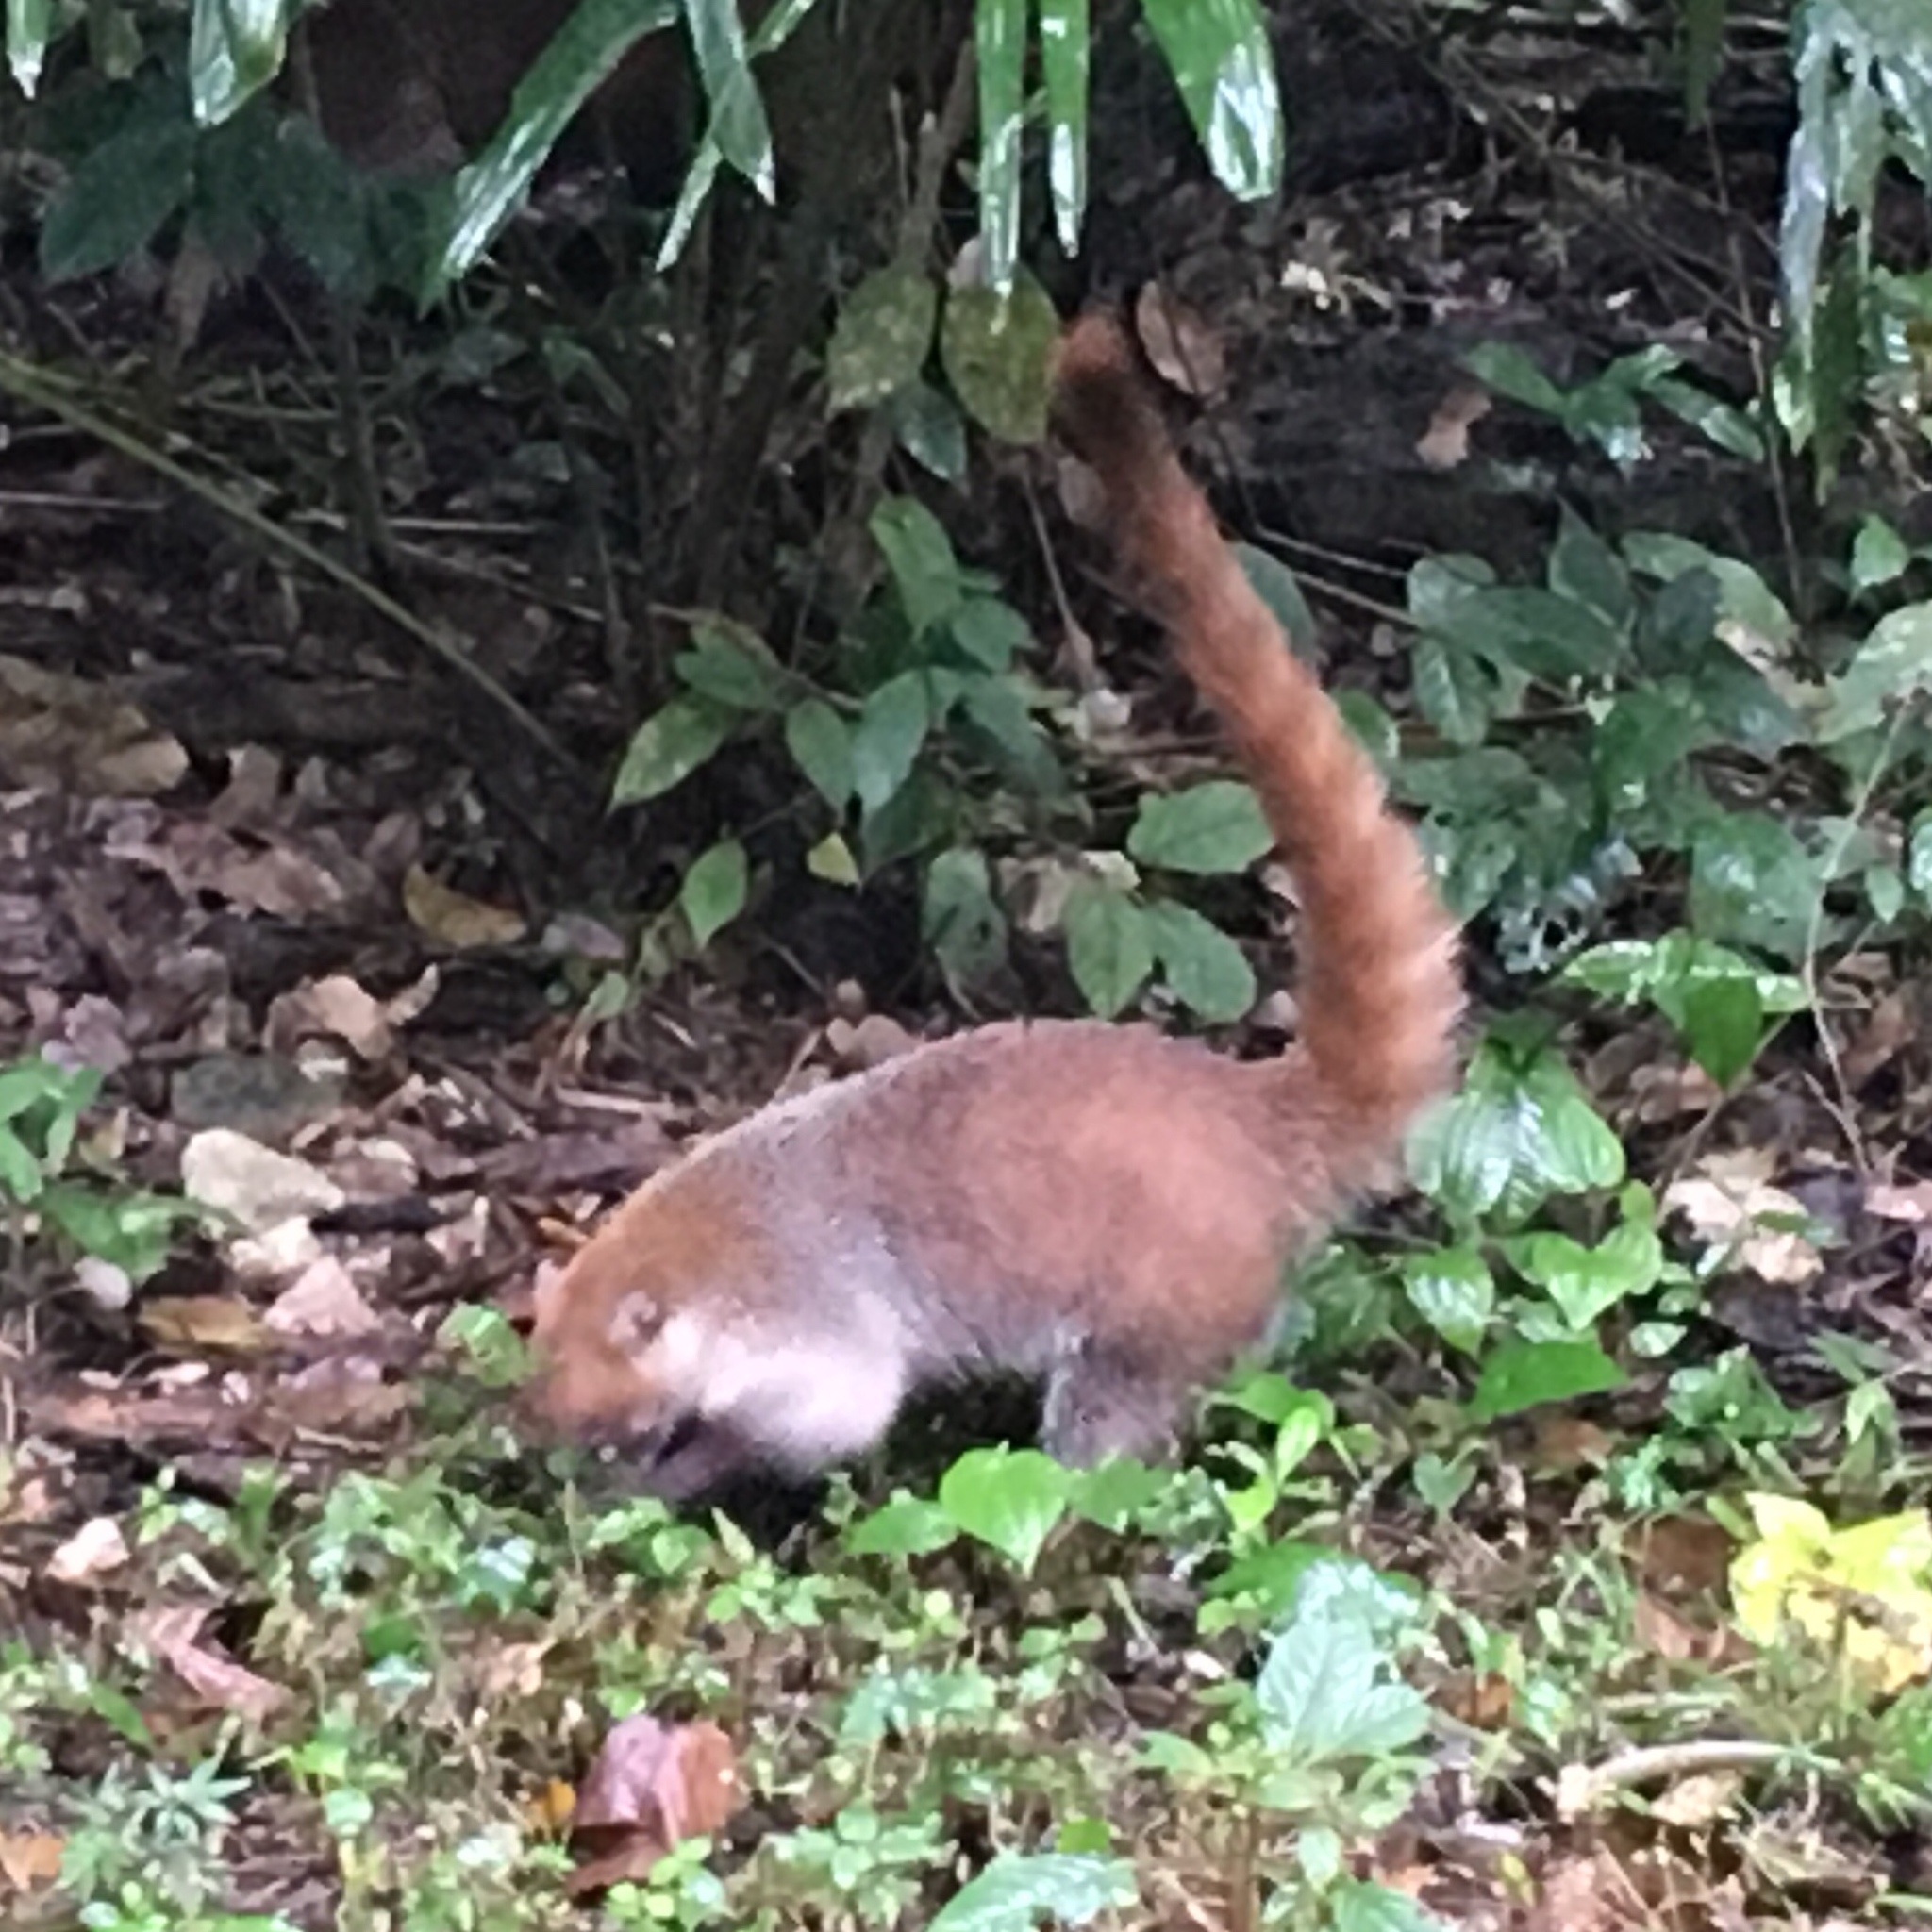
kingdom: Animalia
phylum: Chordata
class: Mammalia
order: Carnivora
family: Procyonidae
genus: Nasua
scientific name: Nasua narica
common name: White-nosed coati
